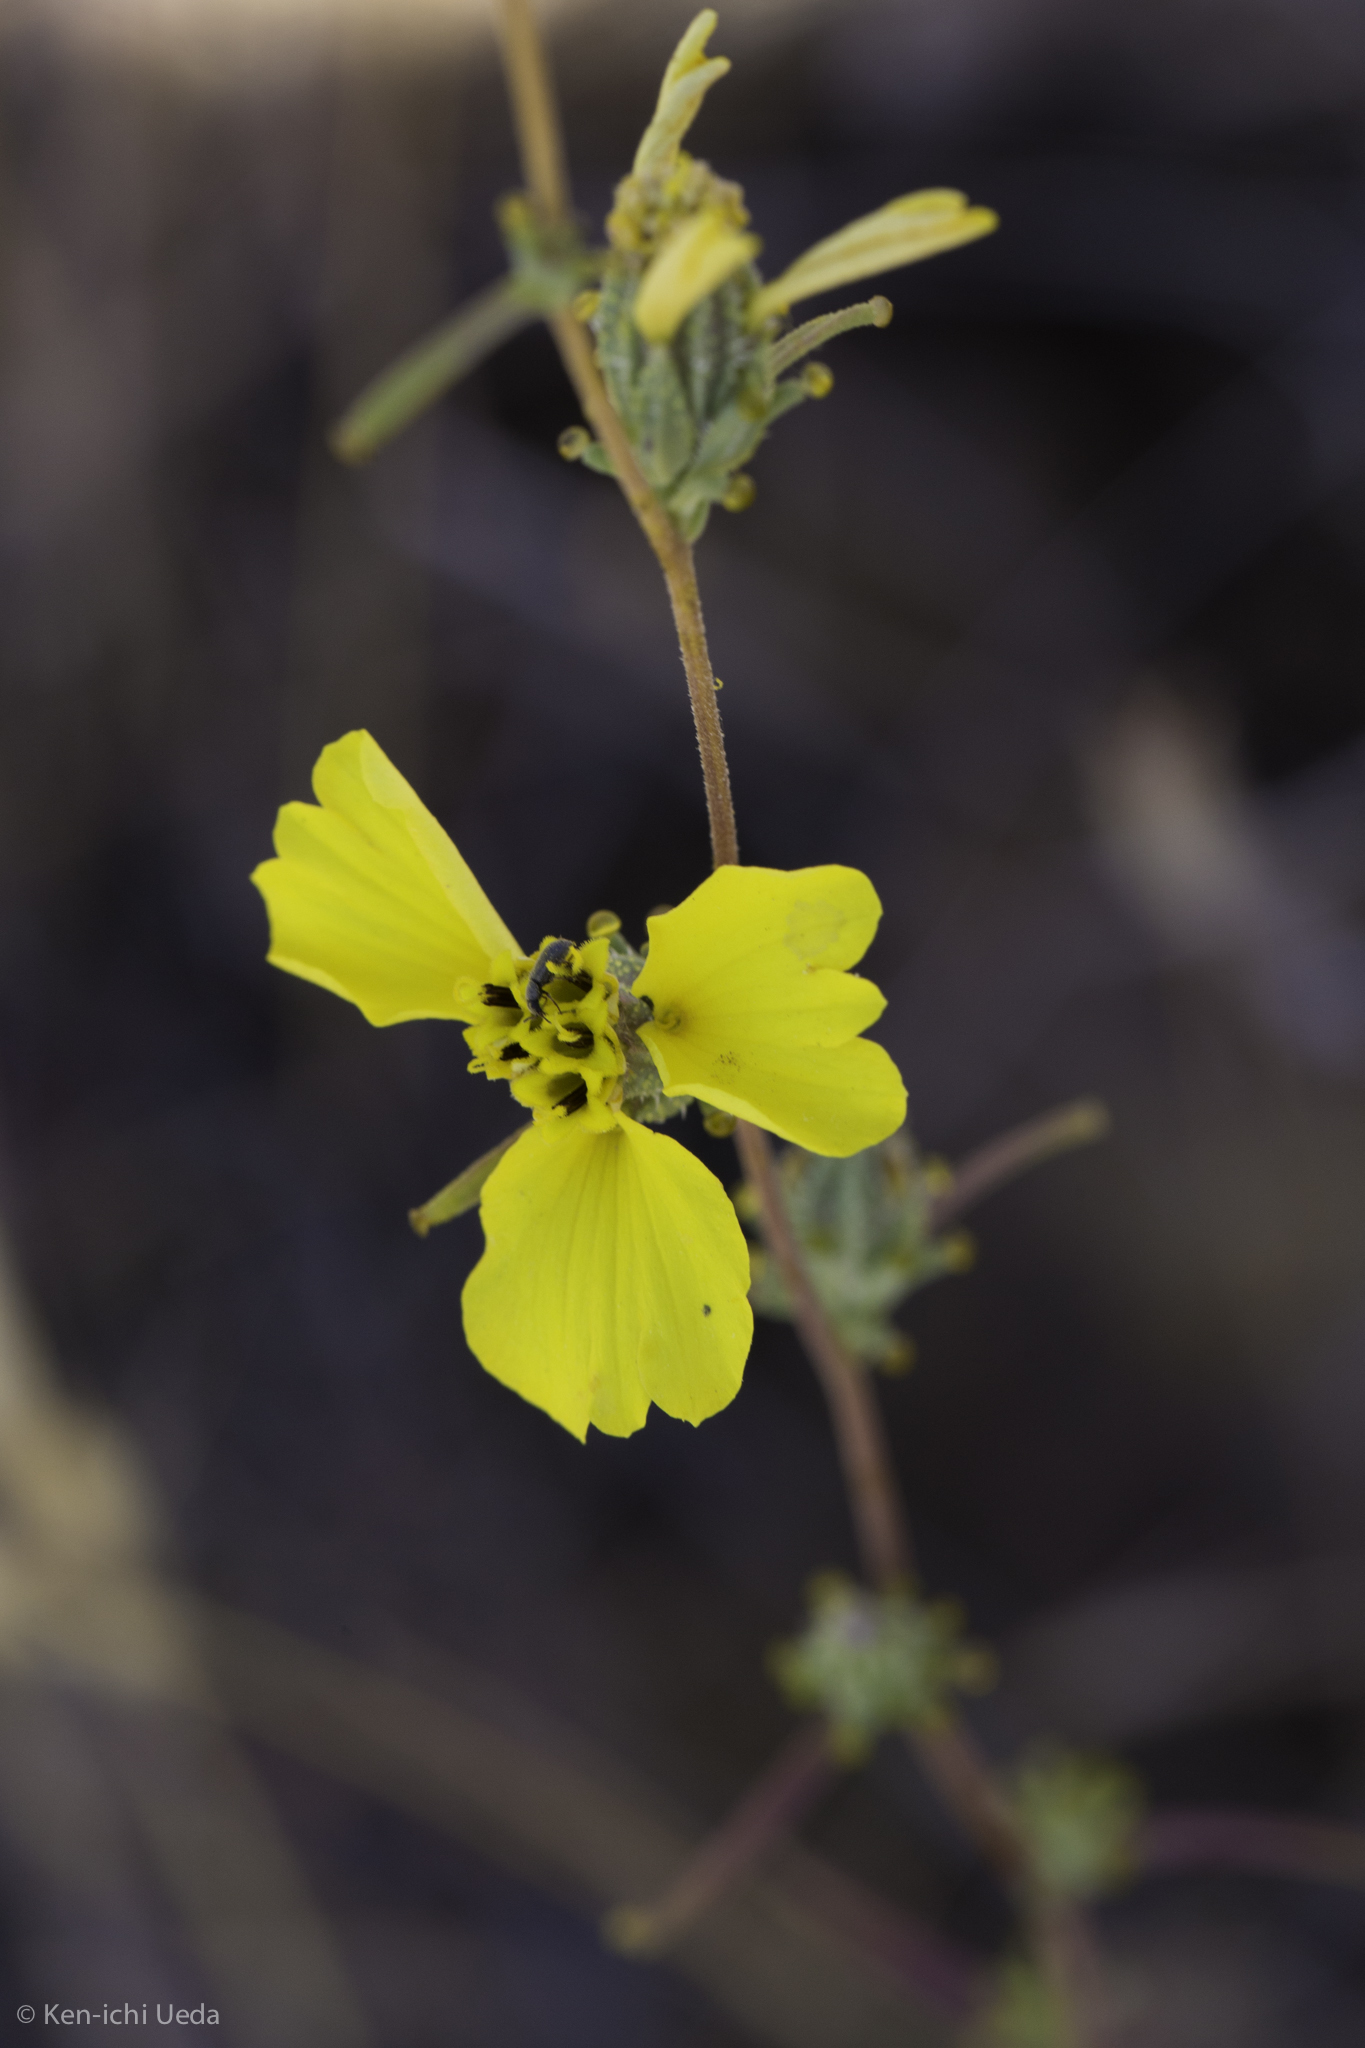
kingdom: Plantae
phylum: Tracheophyta
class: Magnoliopsida
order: Asterales
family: Asteraceae
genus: Calycadenia
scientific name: Calycadenia truncata
